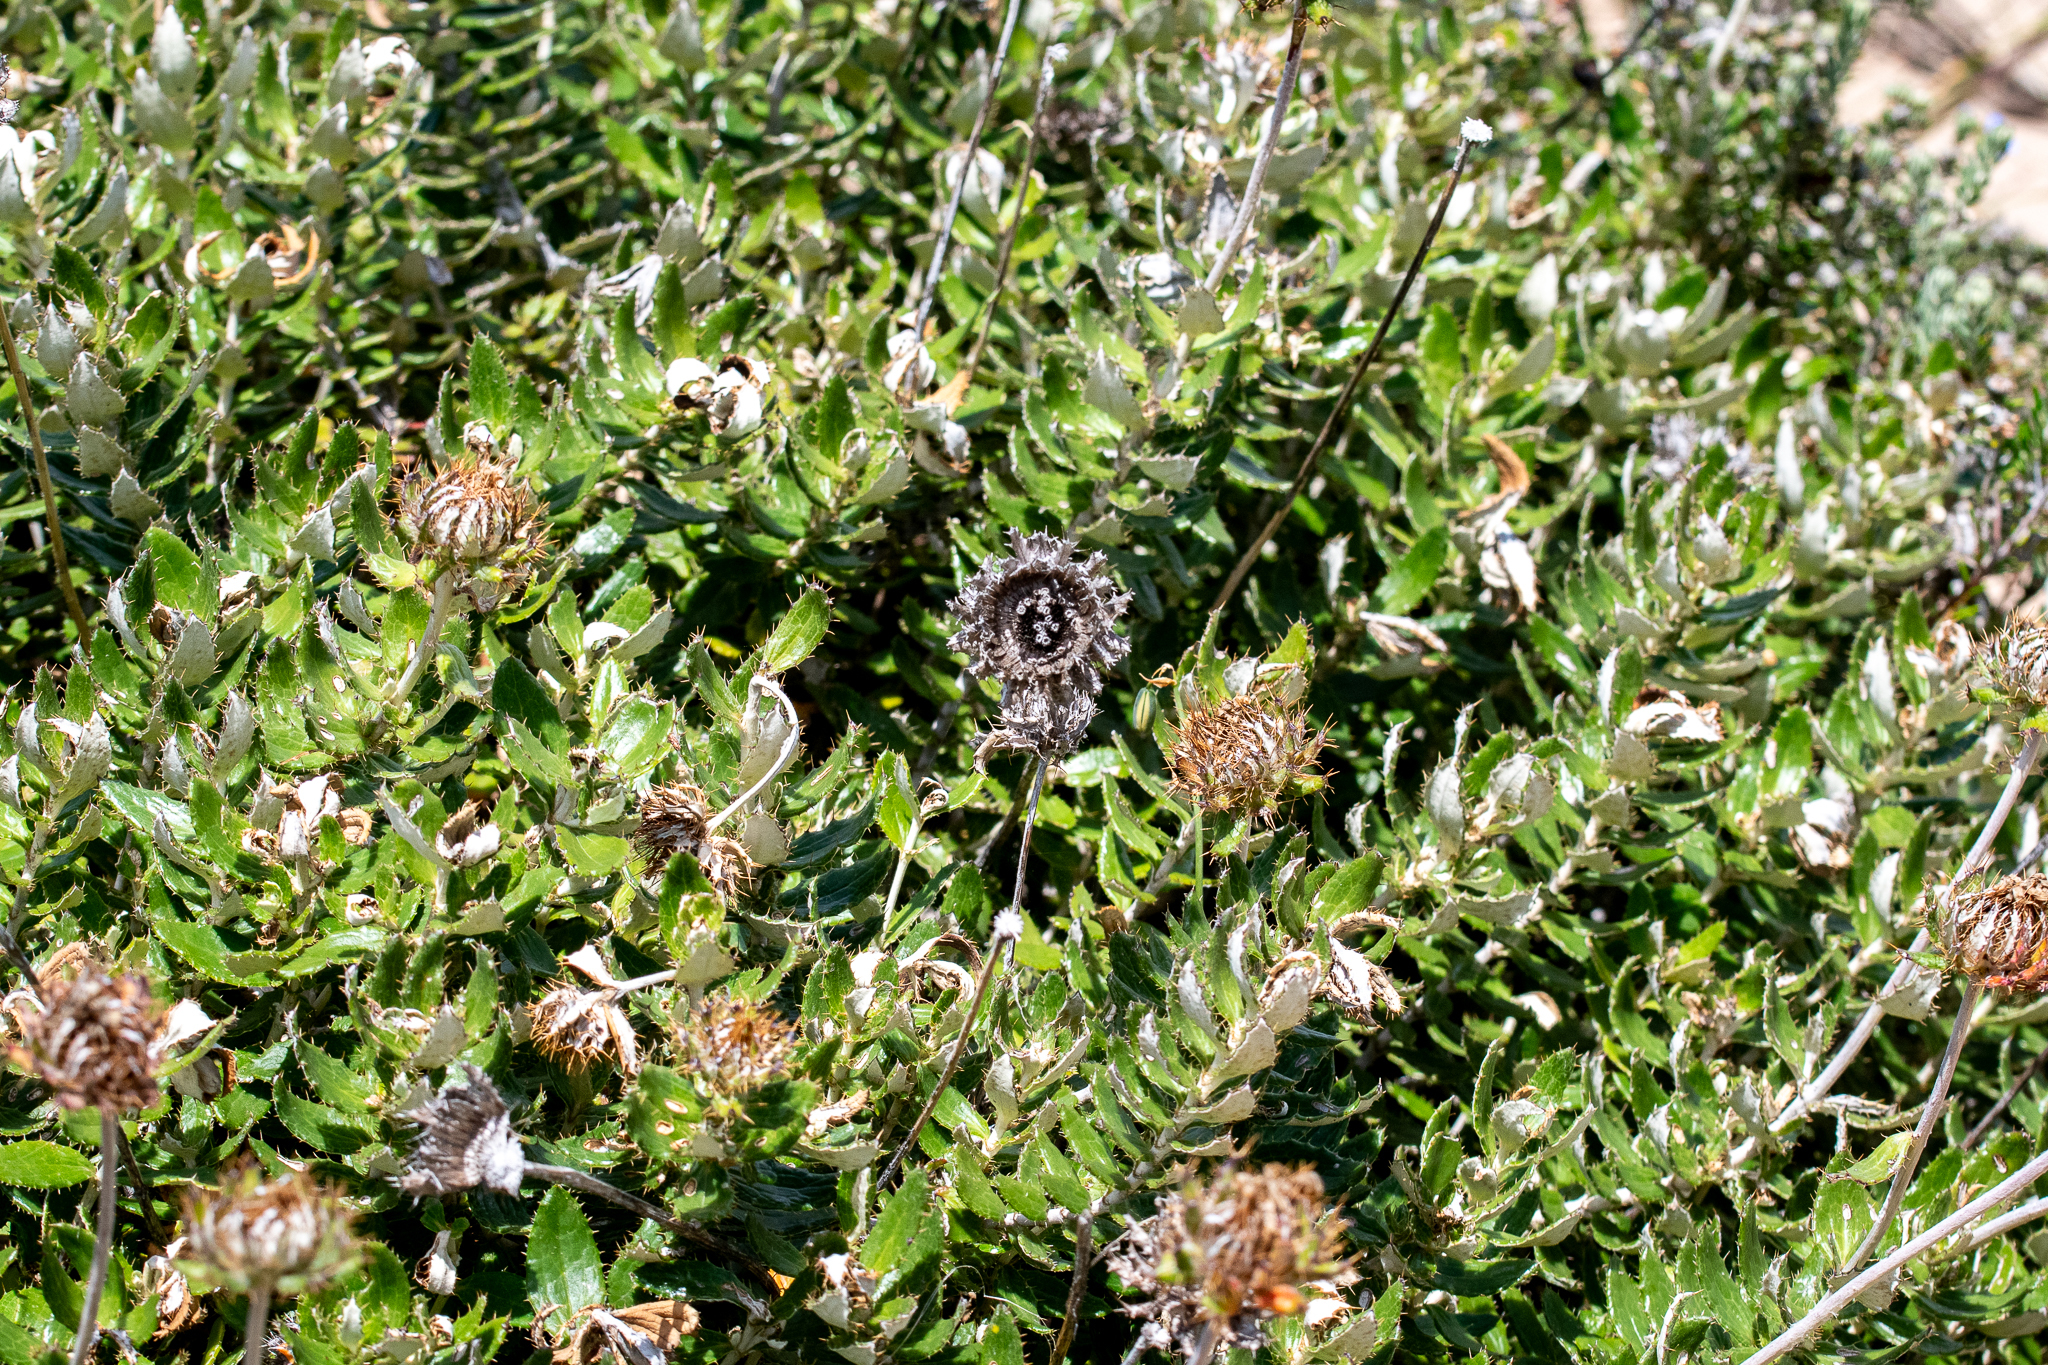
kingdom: Plantae
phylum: Tracheophyta
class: Magnoliopsida
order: Asterales
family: Asteraceae
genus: Berkheya
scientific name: Berkheya barbata
